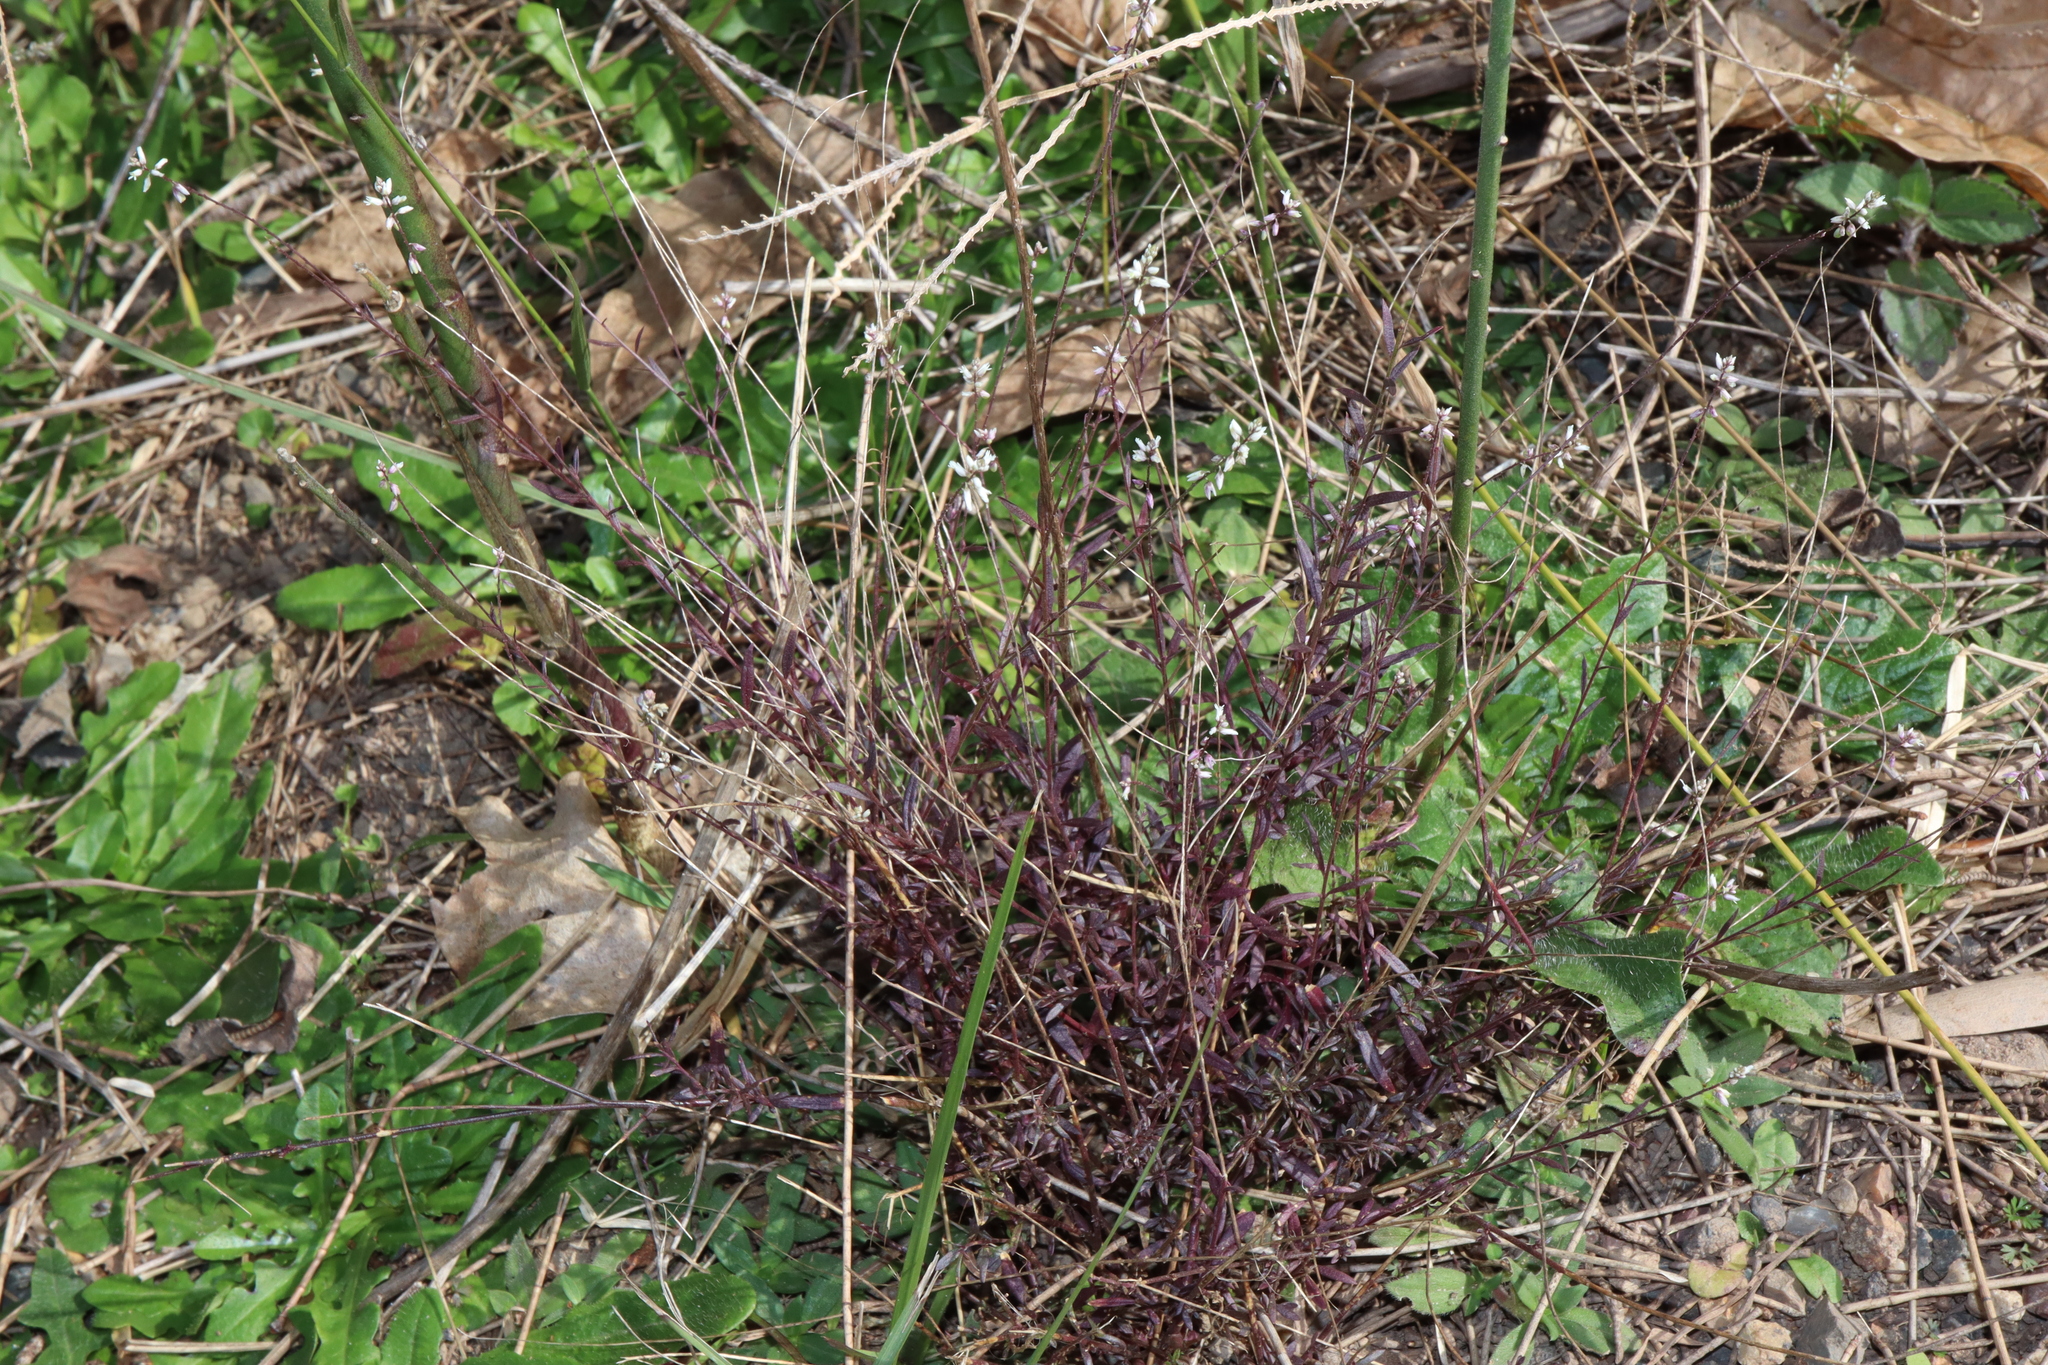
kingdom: Plantae
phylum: Tracheophyta
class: Magnoliopsida
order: Fabales
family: Polygalaceae
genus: Polygala
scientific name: Polygala paniculata
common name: Orosne
